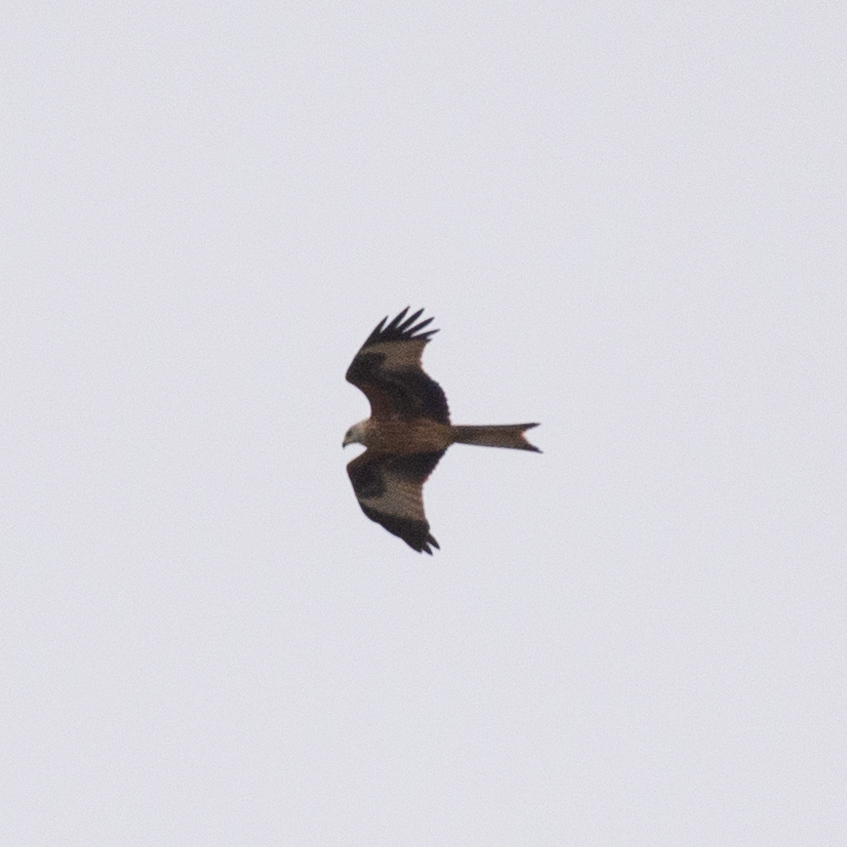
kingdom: Animalia
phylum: Chordata
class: Aves
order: Accipitriformes
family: Accipitridae
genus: Milvus
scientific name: Milvus milvus
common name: Red kite
